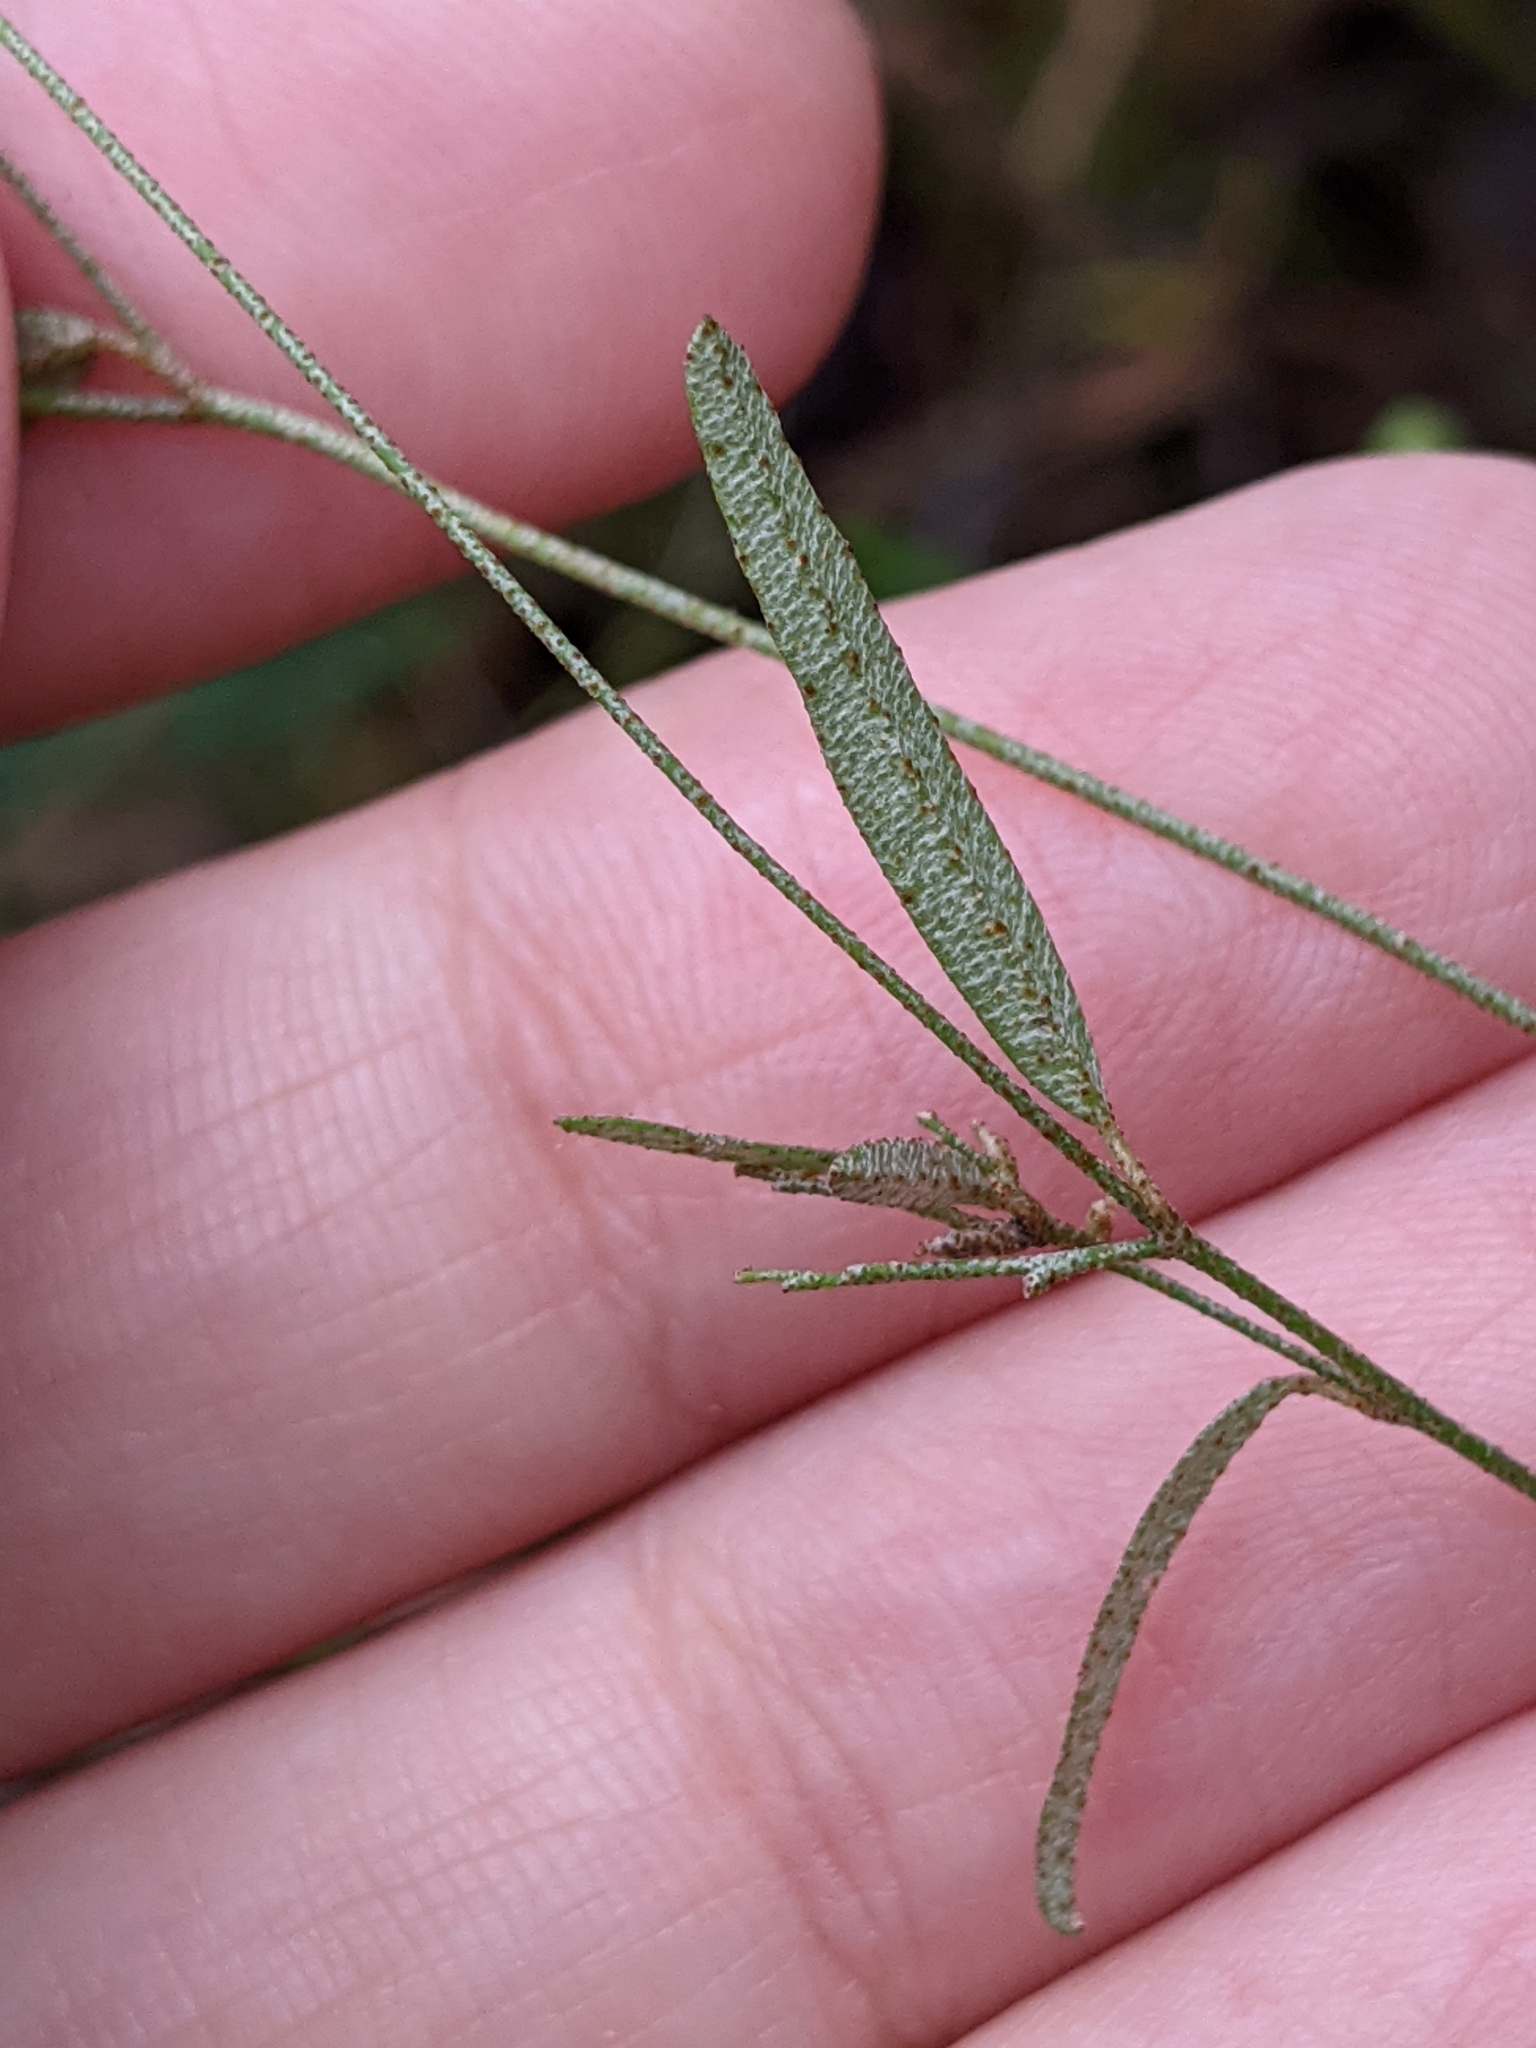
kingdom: Plantae
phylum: Tracheophyta
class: Magnoliopsida
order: Malpighiales
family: Euphorbiaceae
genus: Croton
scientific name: Croton michauxii
